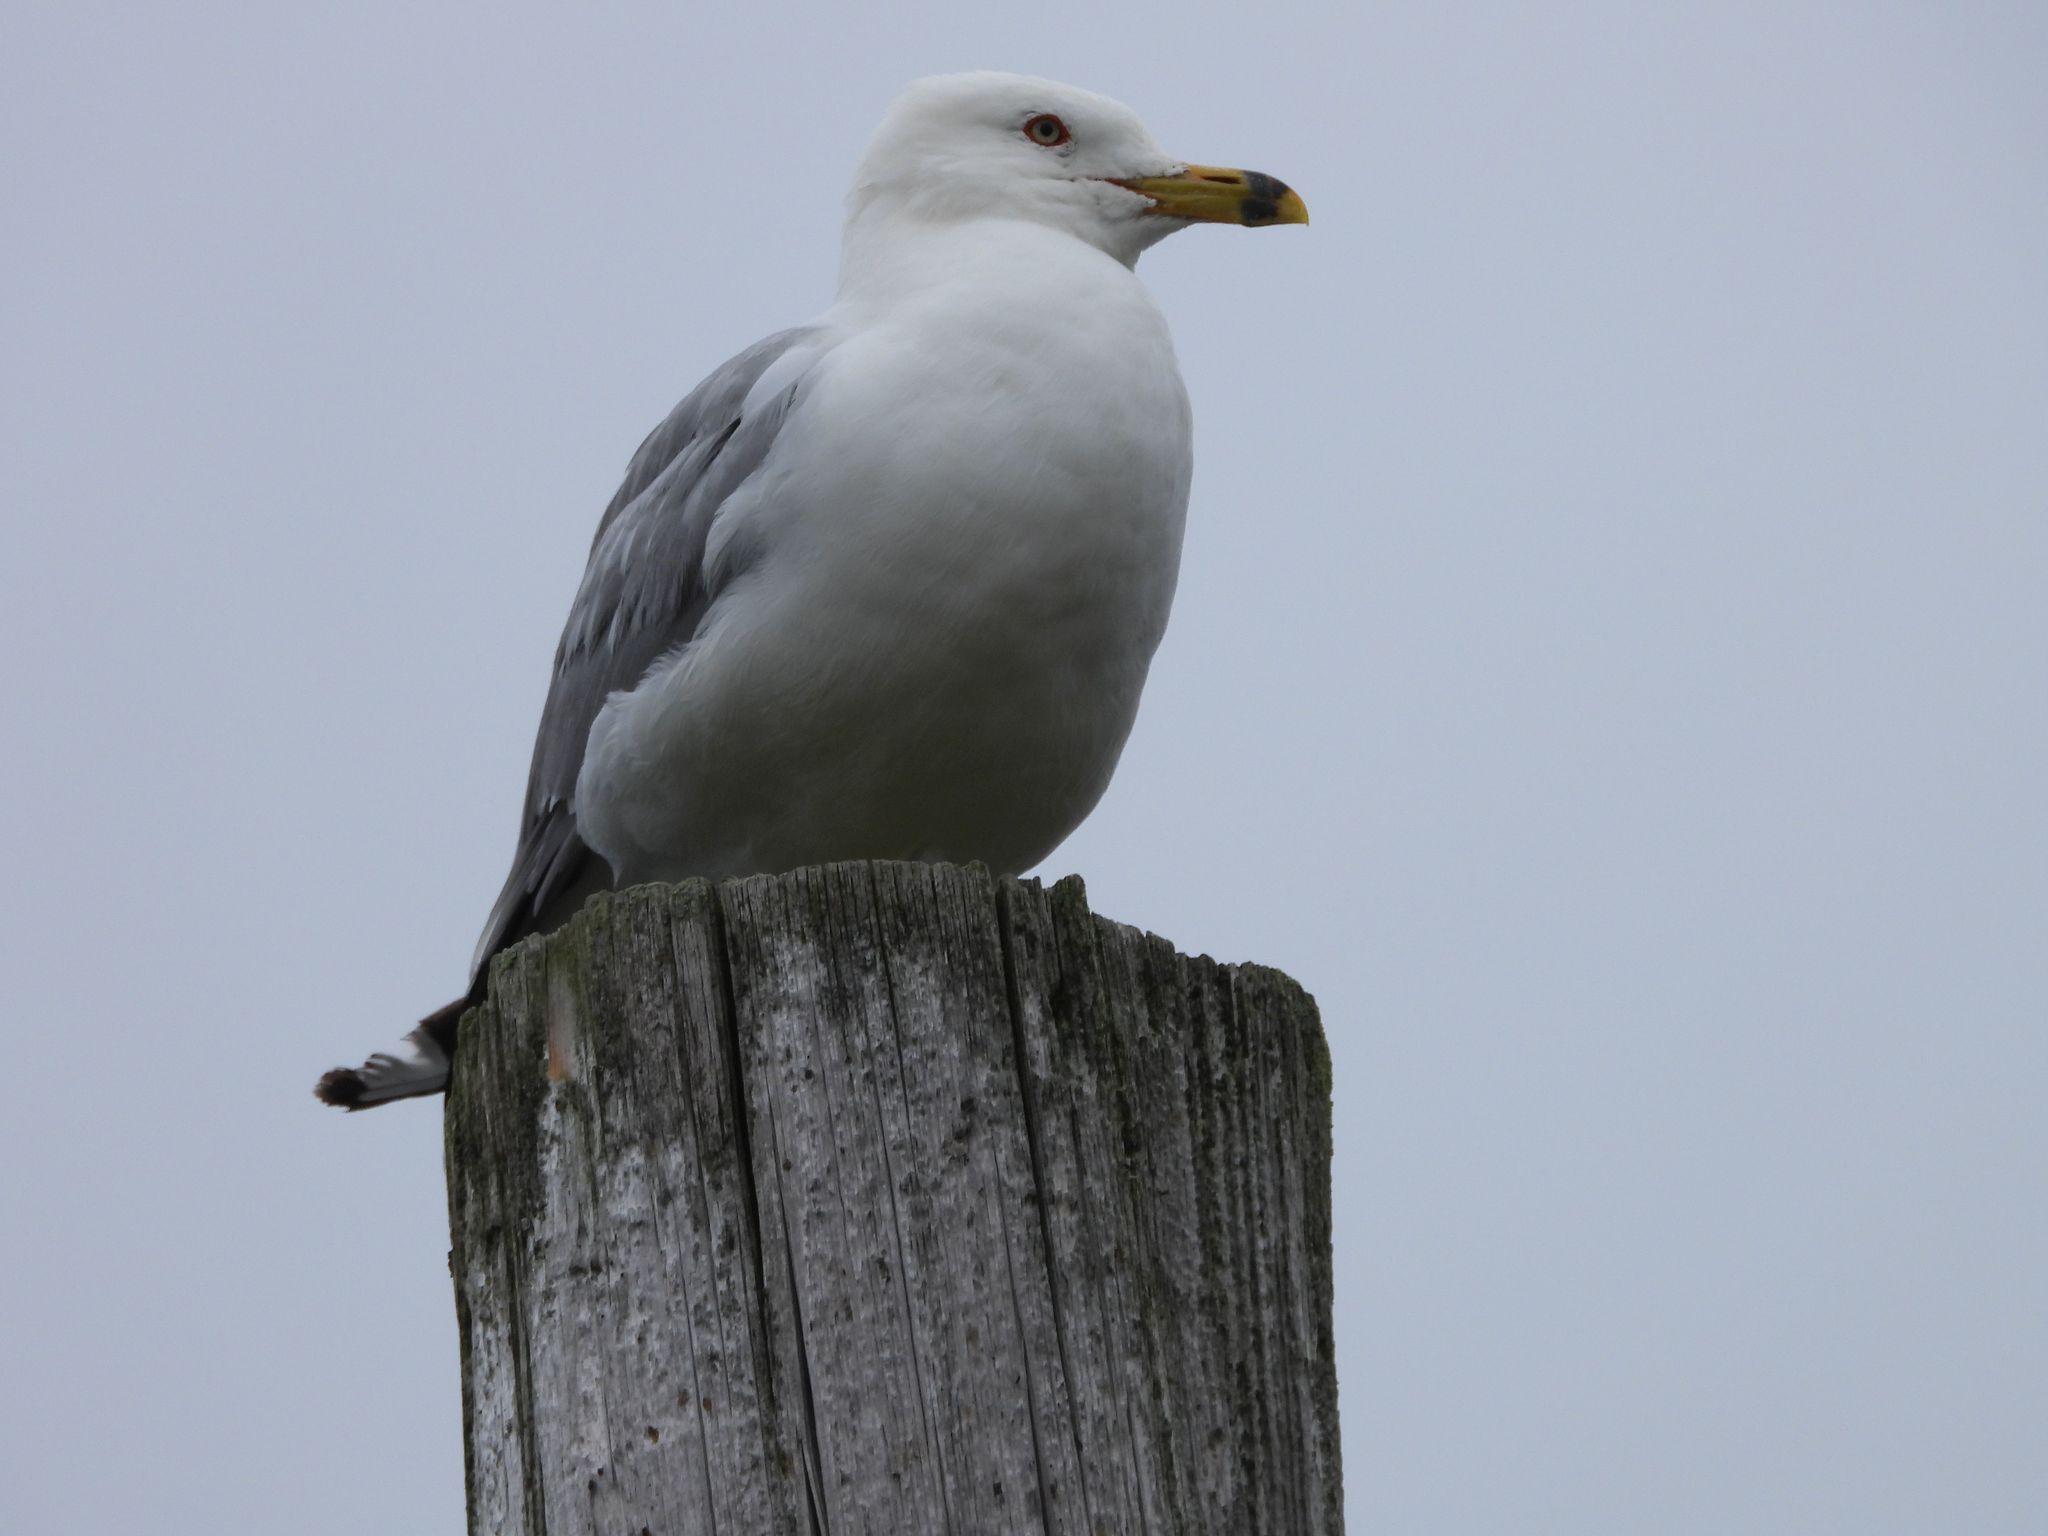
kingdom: Animalia
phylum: Chordata
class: Aves
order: Charadriiformes
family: Laridae
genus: Larus
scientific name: Larus delawarensis
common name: Ring-billed gull
